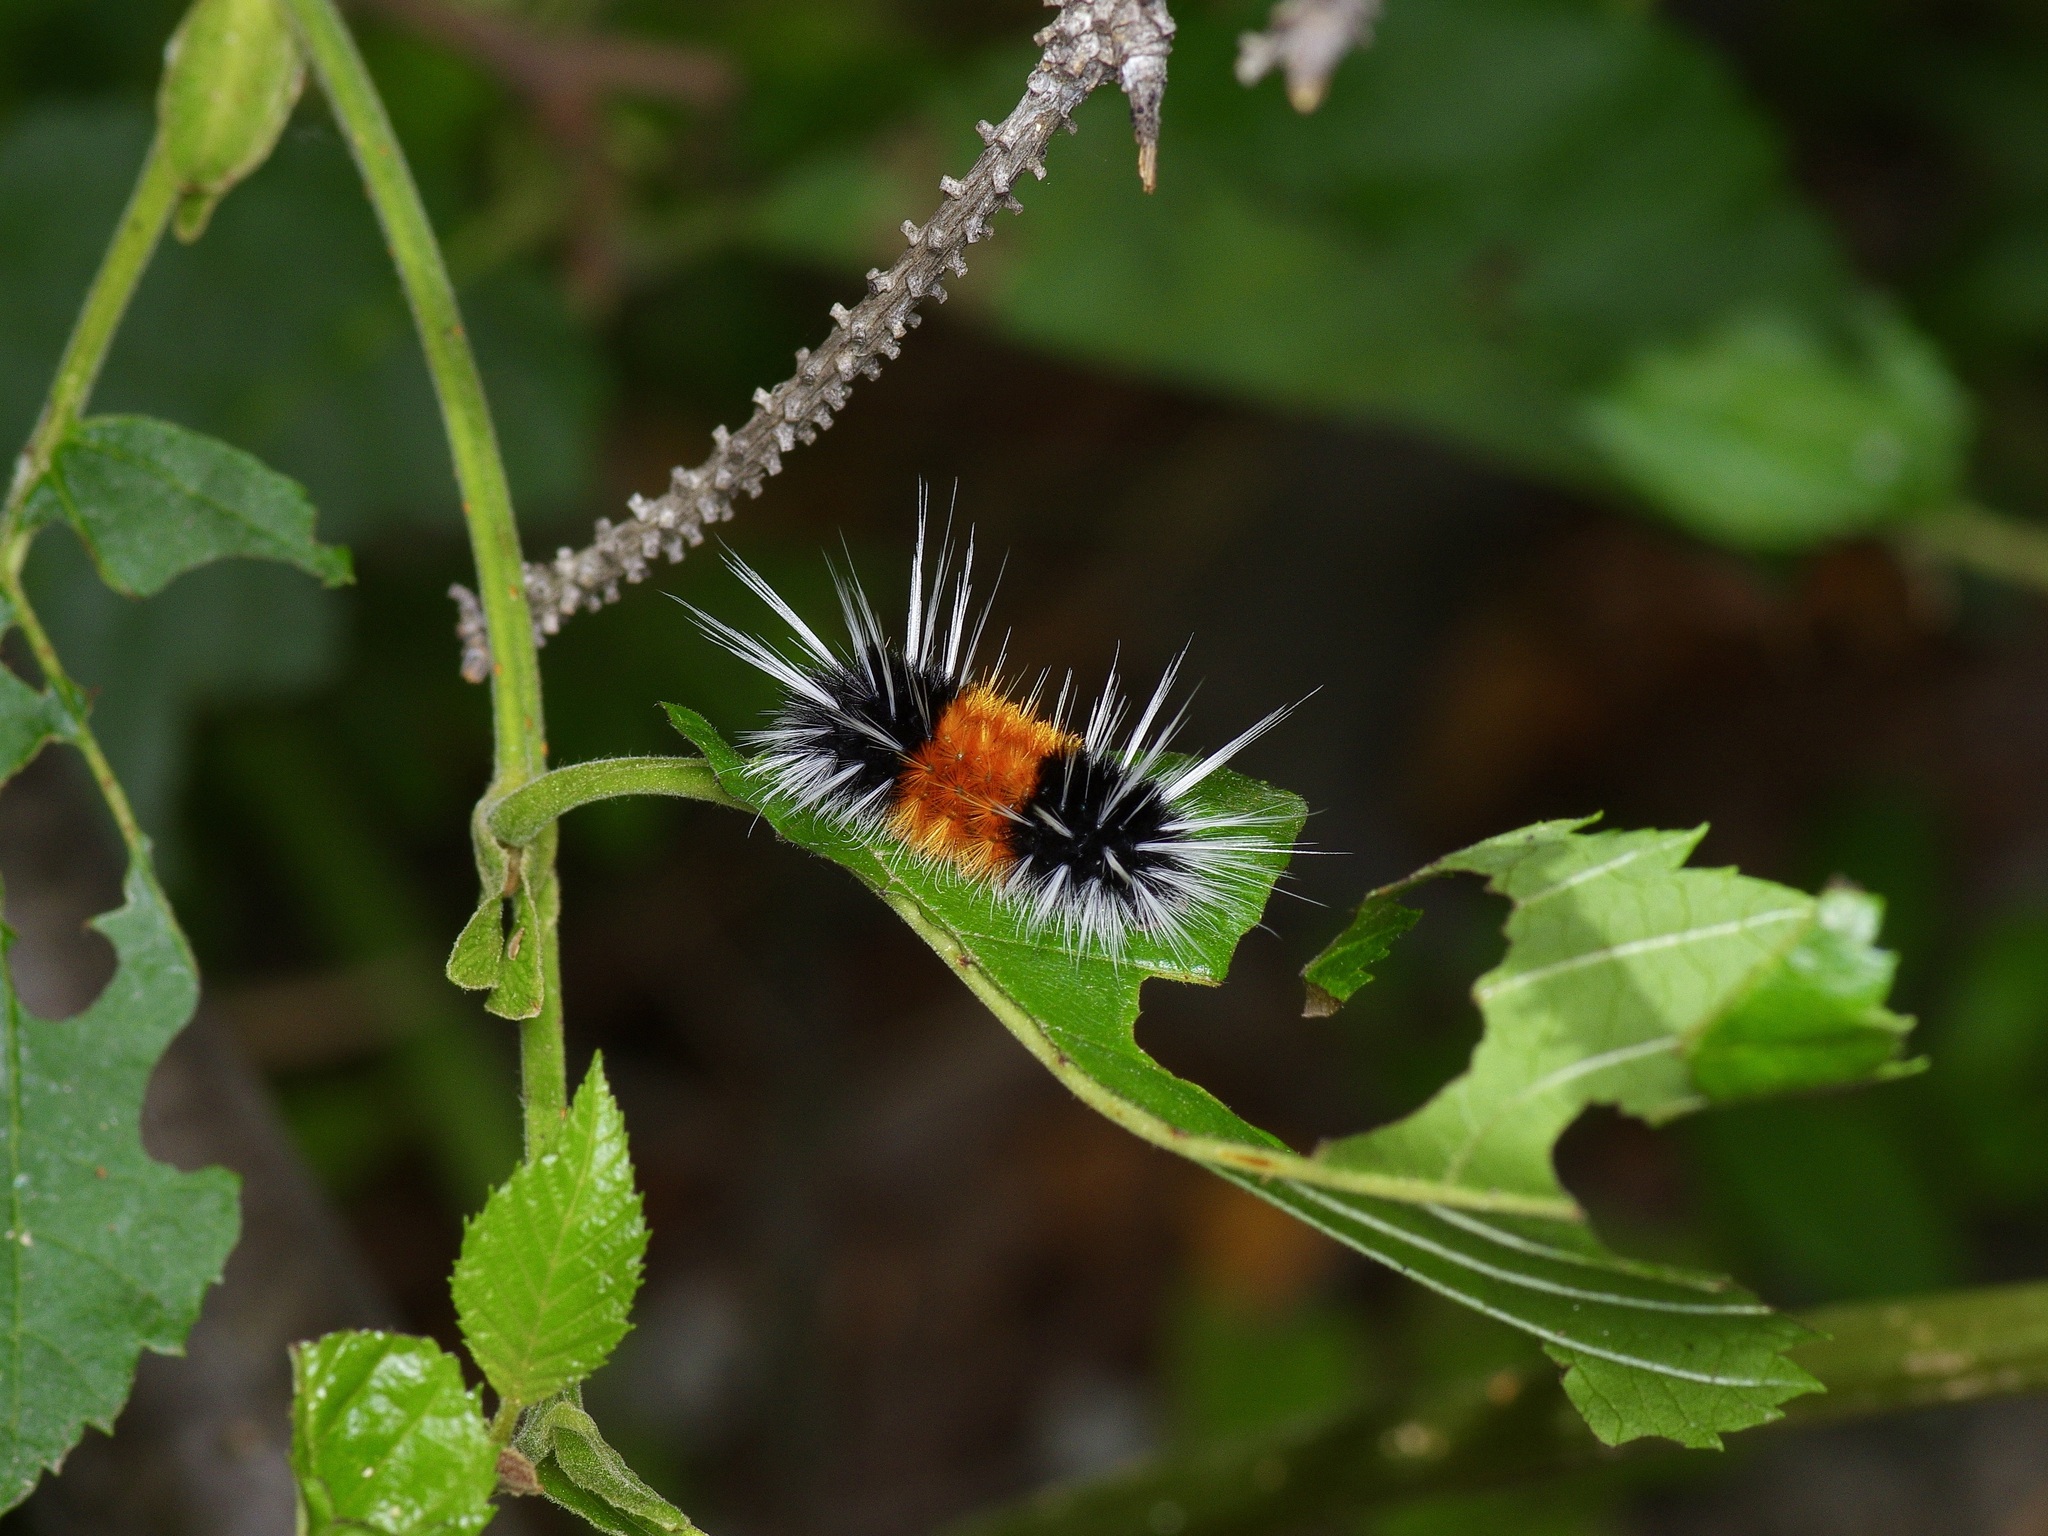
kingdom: Animalia
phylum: Arthropoda
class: Insecta
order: Lepidoptera
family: Erebidae
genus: Lophocampa
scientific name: Lophocampa maculata
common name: Spotted tussock moth
